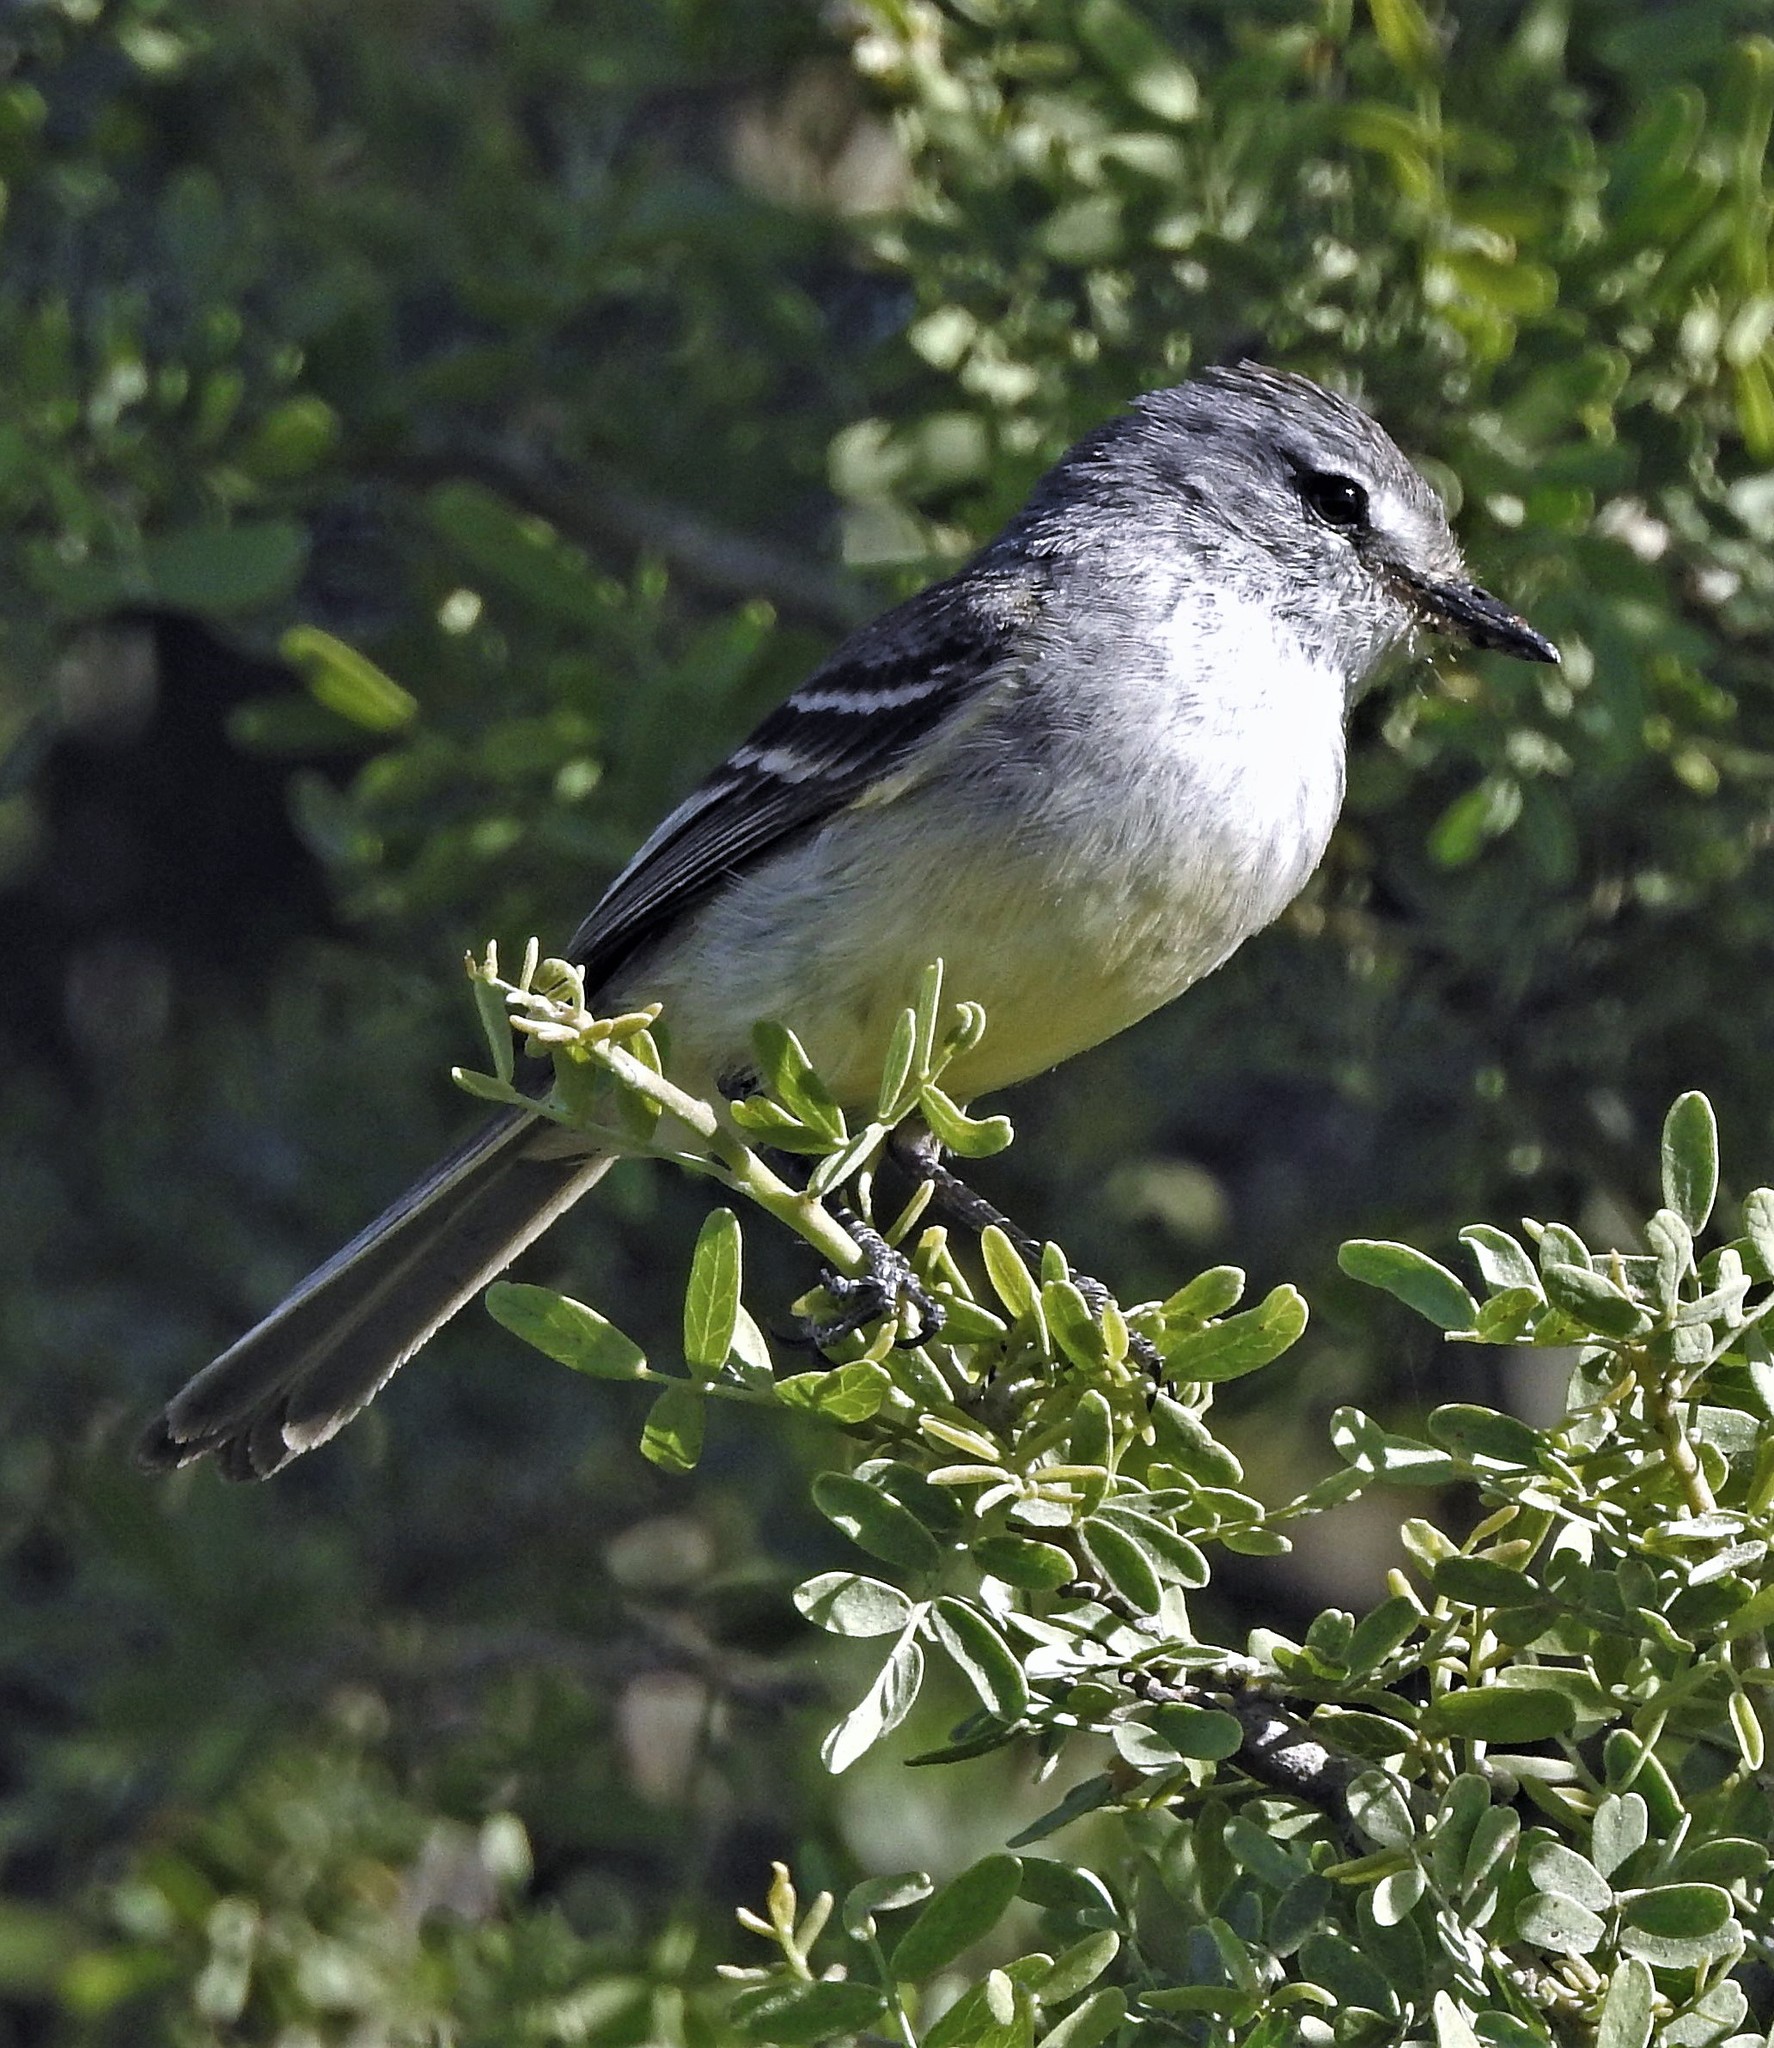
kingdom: Animalia
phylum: Chordata
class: Aves
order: Passeriformes
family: Tyrannidae
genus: Serpophaga
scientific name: Serpophaga subcristata
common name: White-crested tyrannulet
